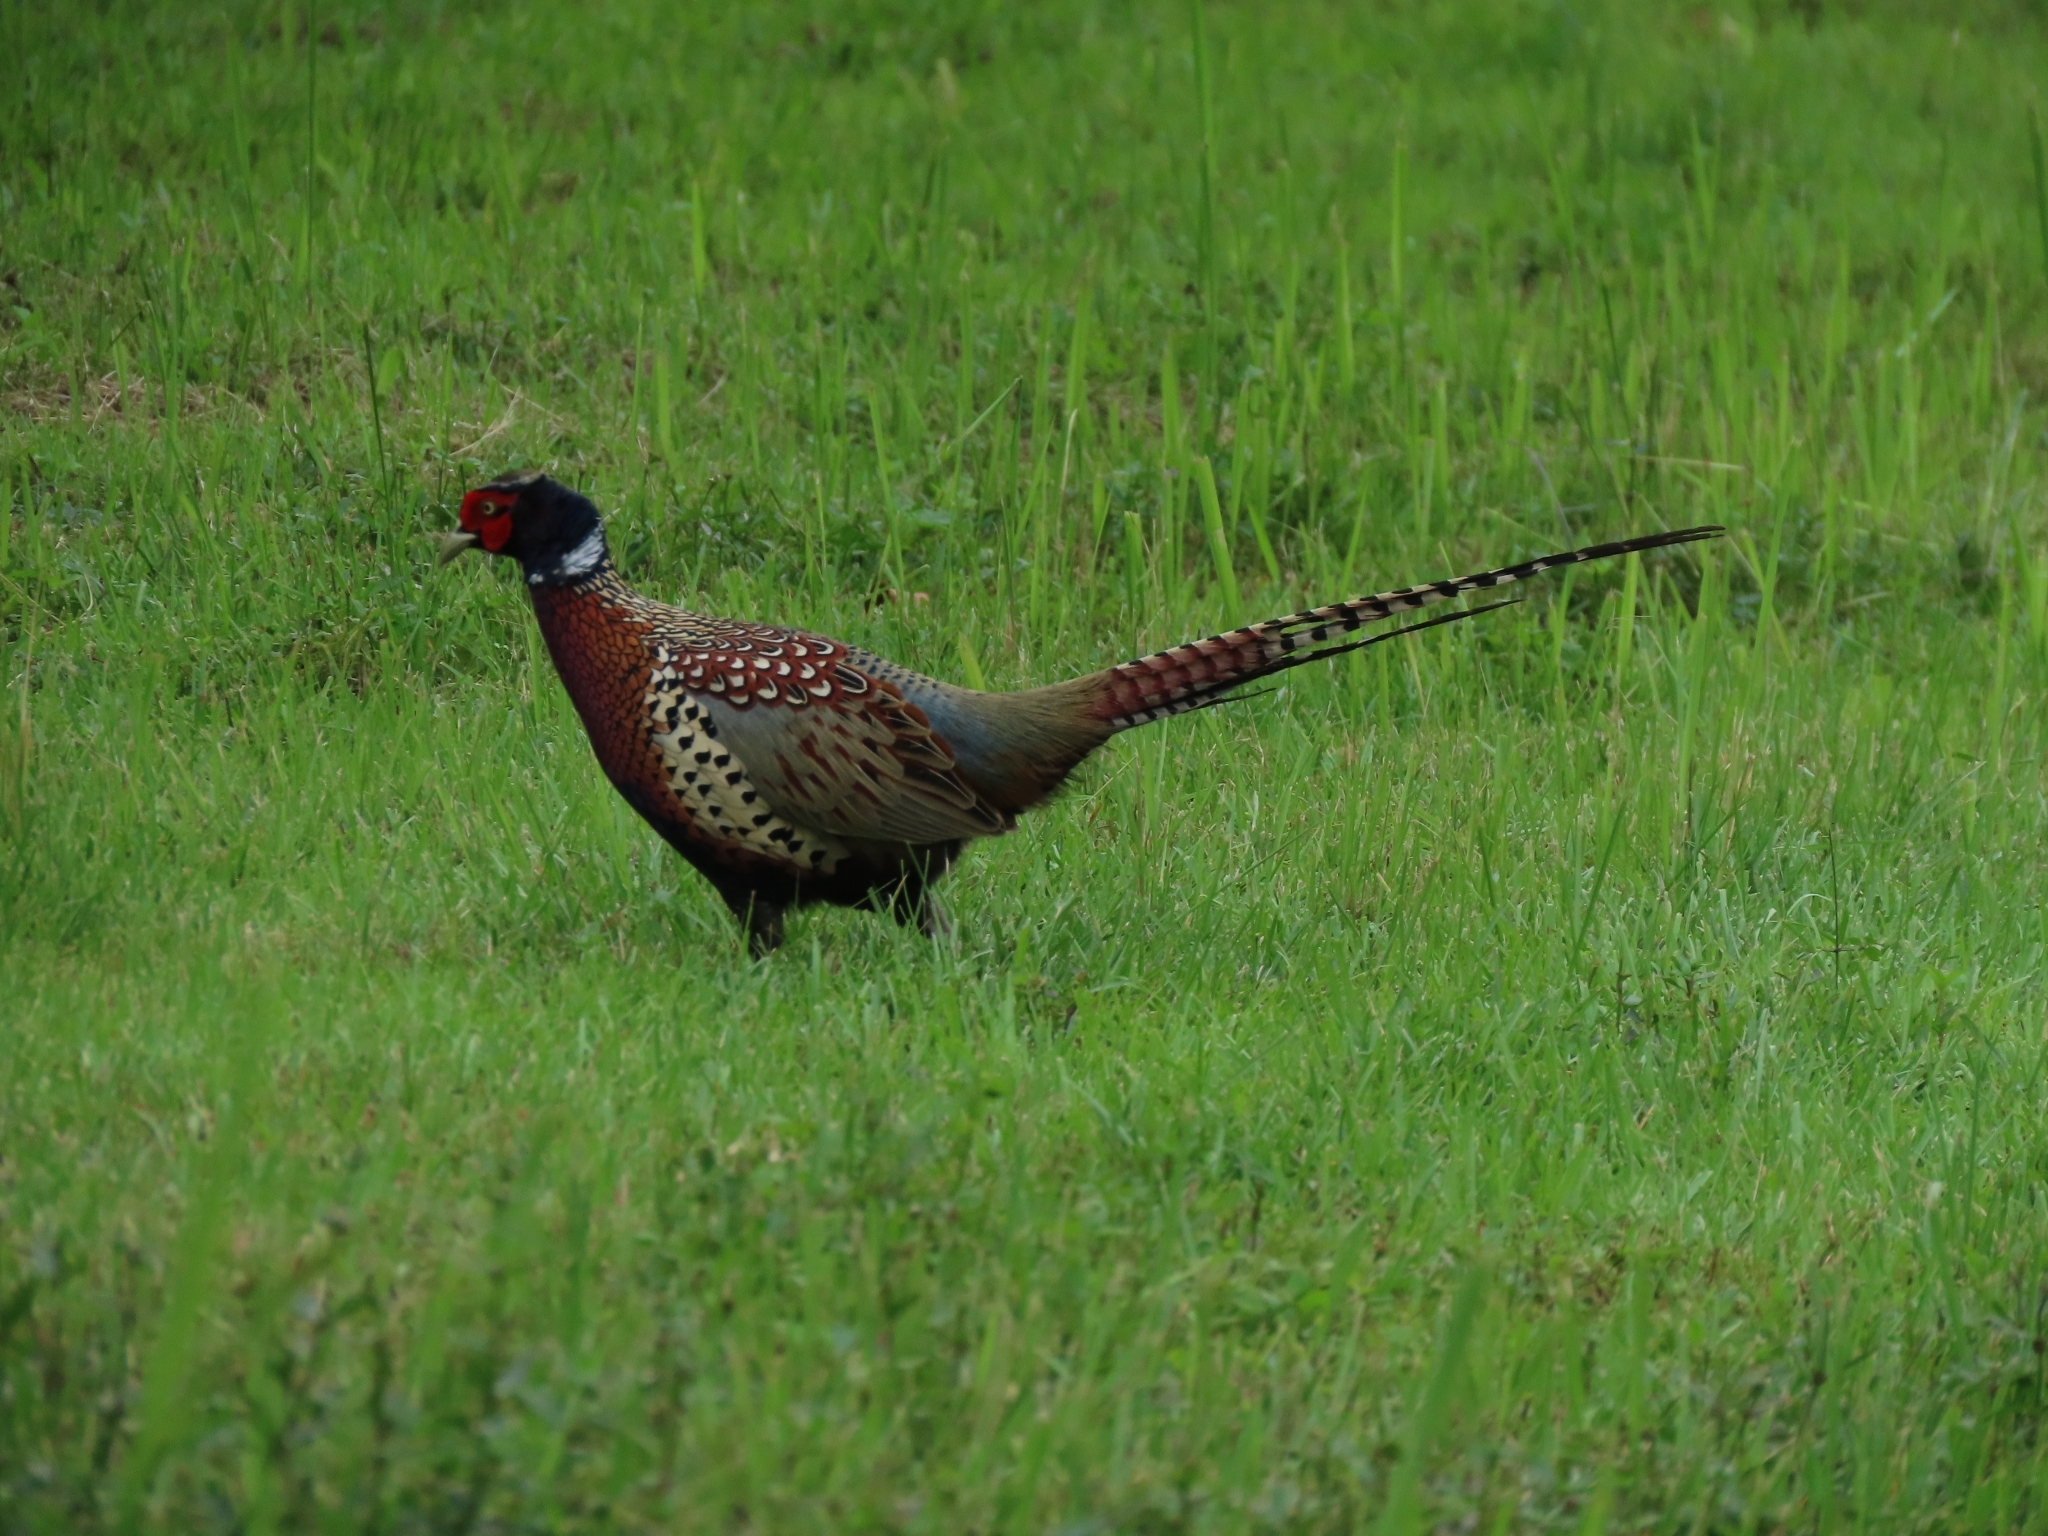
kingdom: Animalia
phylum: Chordata
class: Aves
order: Galliformes
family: Phasianidae
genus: Phasianus
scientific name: Phasianus colchicus
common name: Common pheasant
